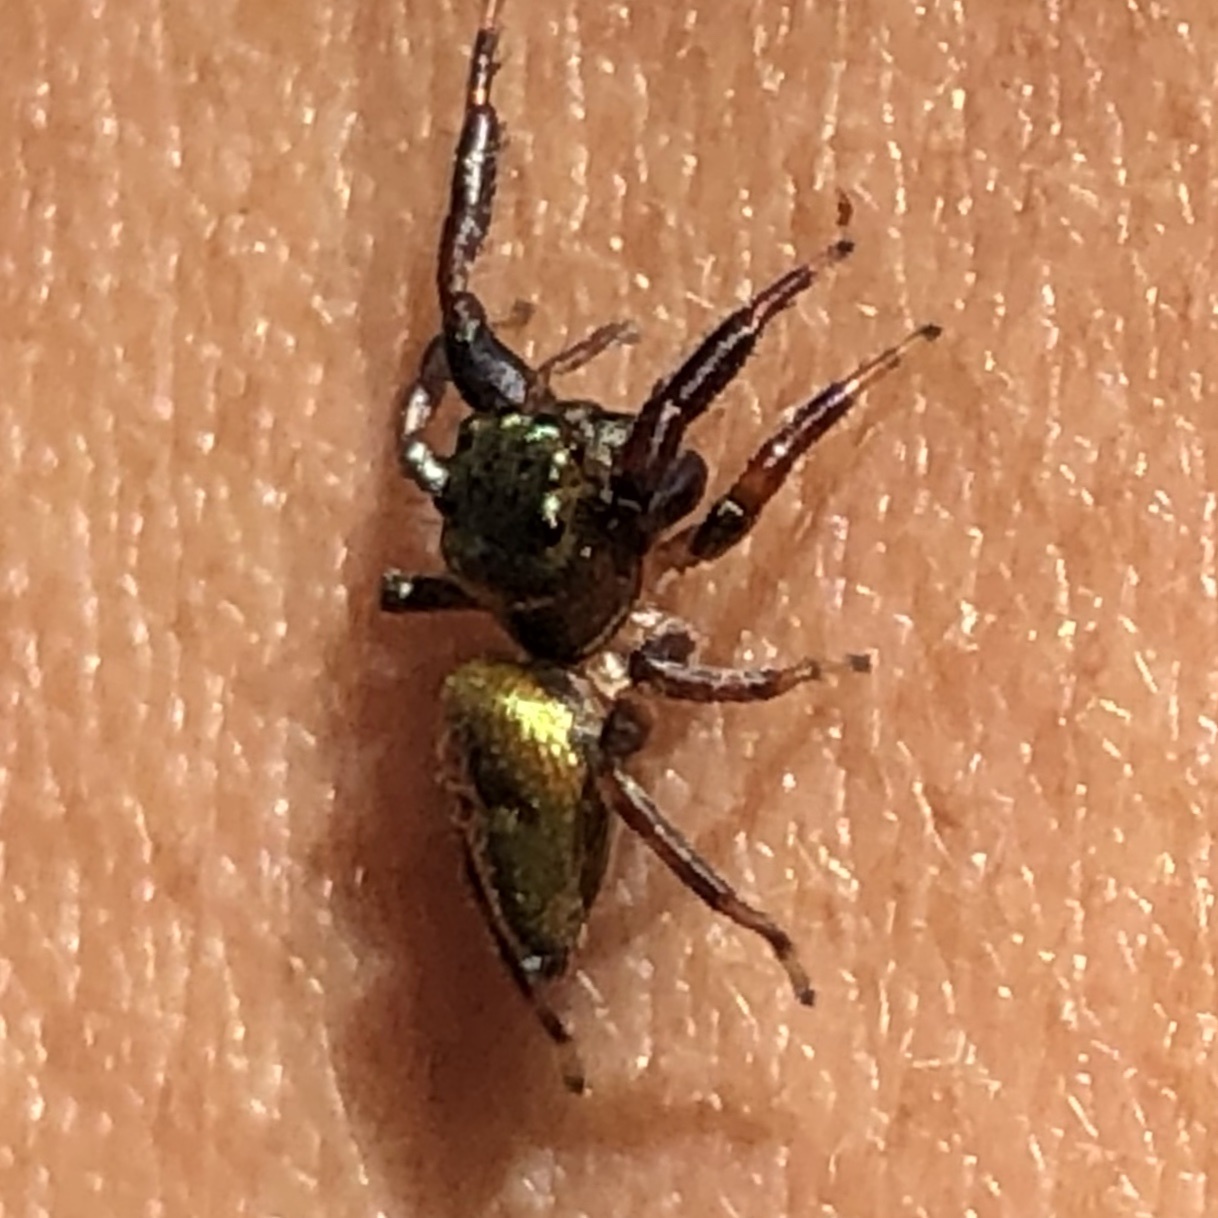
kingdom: Animalia
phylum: Arthropoda
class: Arachnida
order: Araneae
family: Salticidae
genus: Messua
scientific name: Messua limbata
